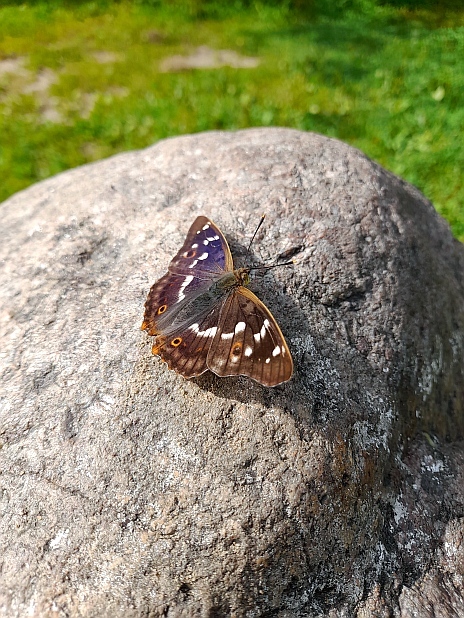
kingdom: Animalia
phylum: Arthropoda
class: Insecta
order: Lepidoptera
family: Nymphalidae
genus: Apatura
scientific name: Apatura ilia
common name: Lesser purple emperor
